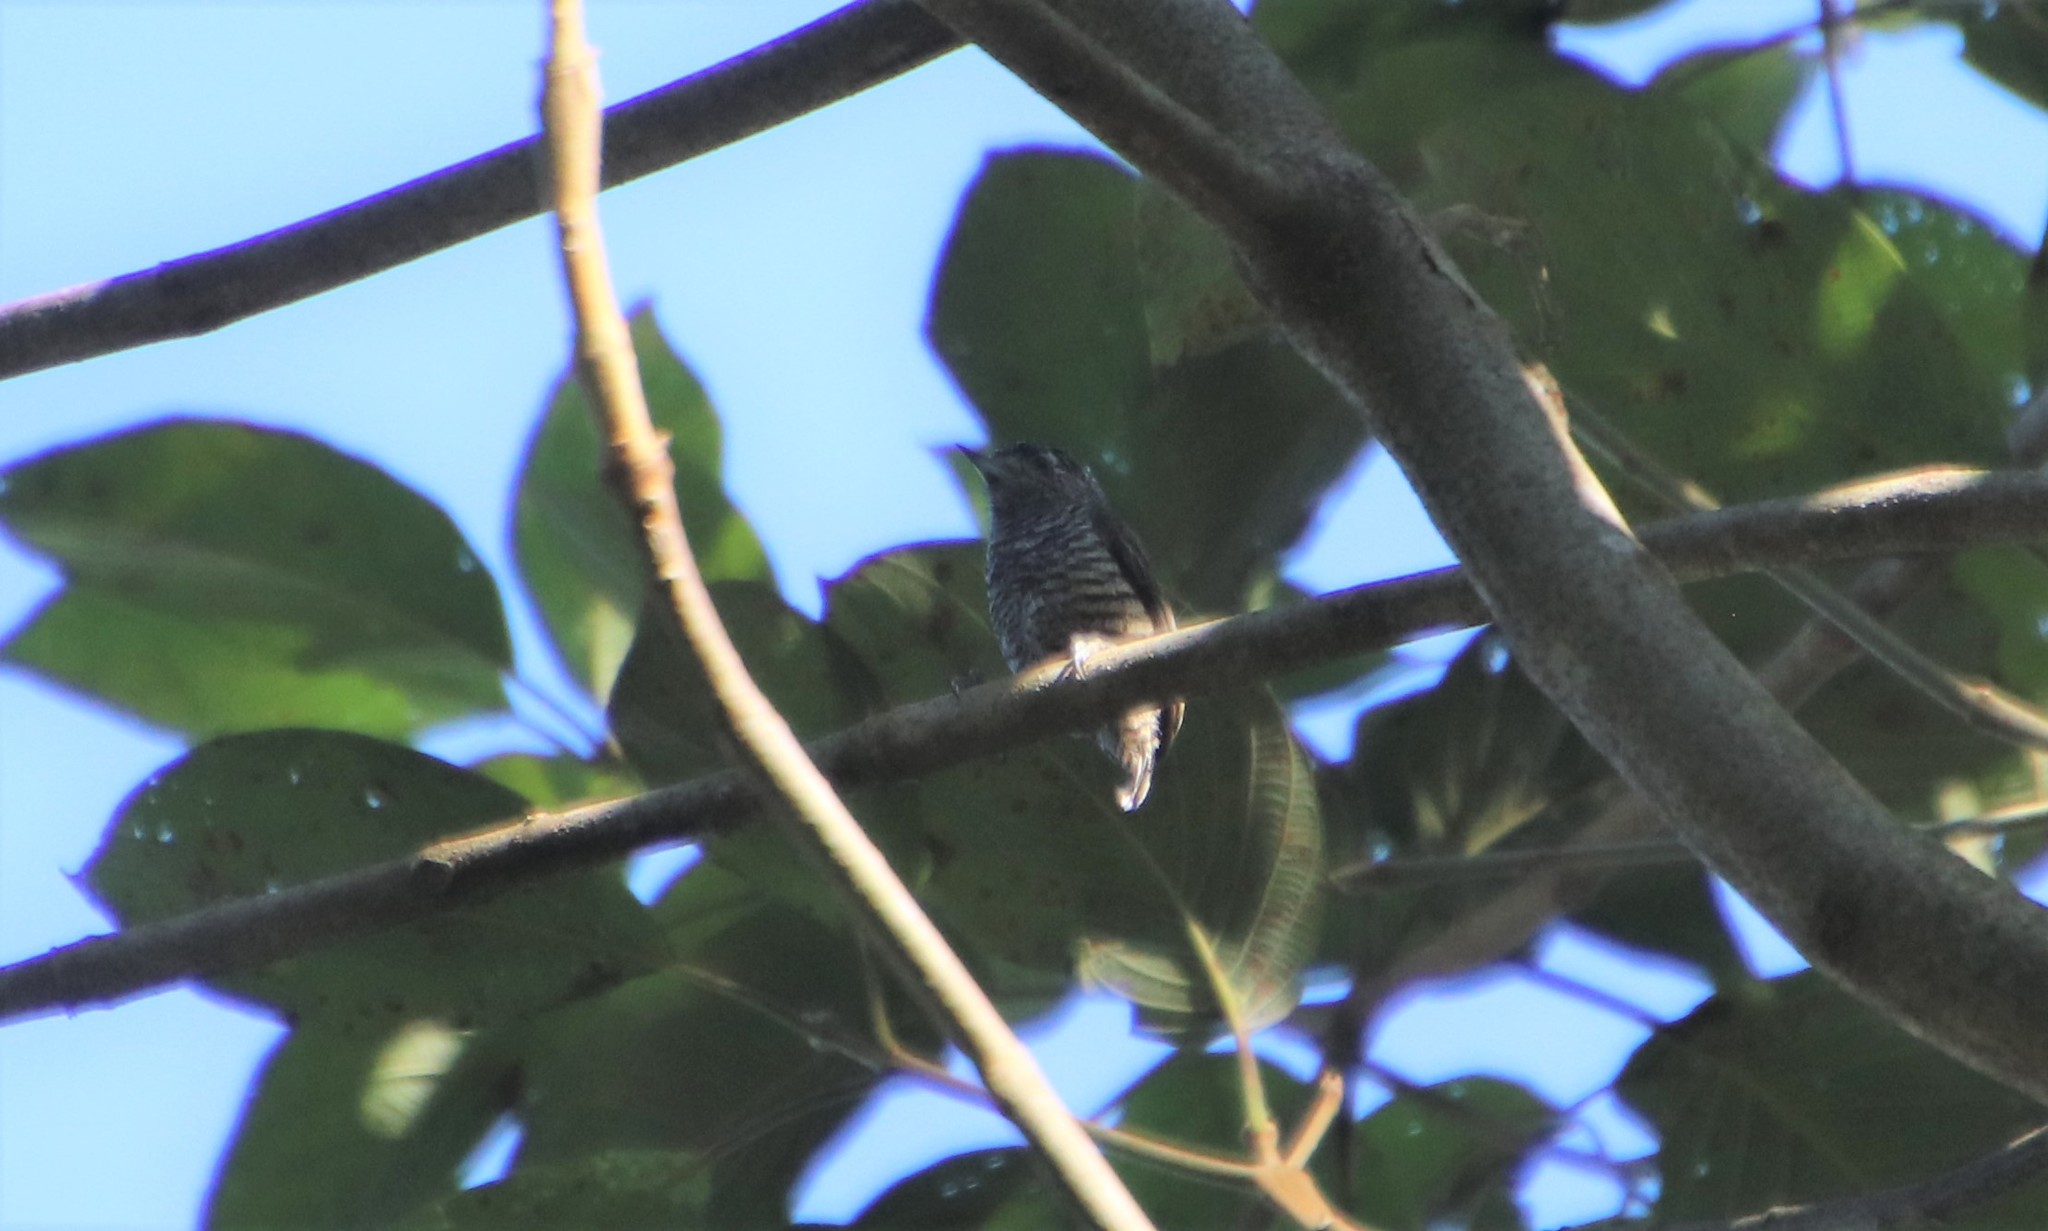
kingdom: Animalia
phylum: Chordata
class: Aves
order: Piciformes
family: Picidae
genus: Picumnus
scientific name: Picumnus cirratus
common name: White-barred piculet
